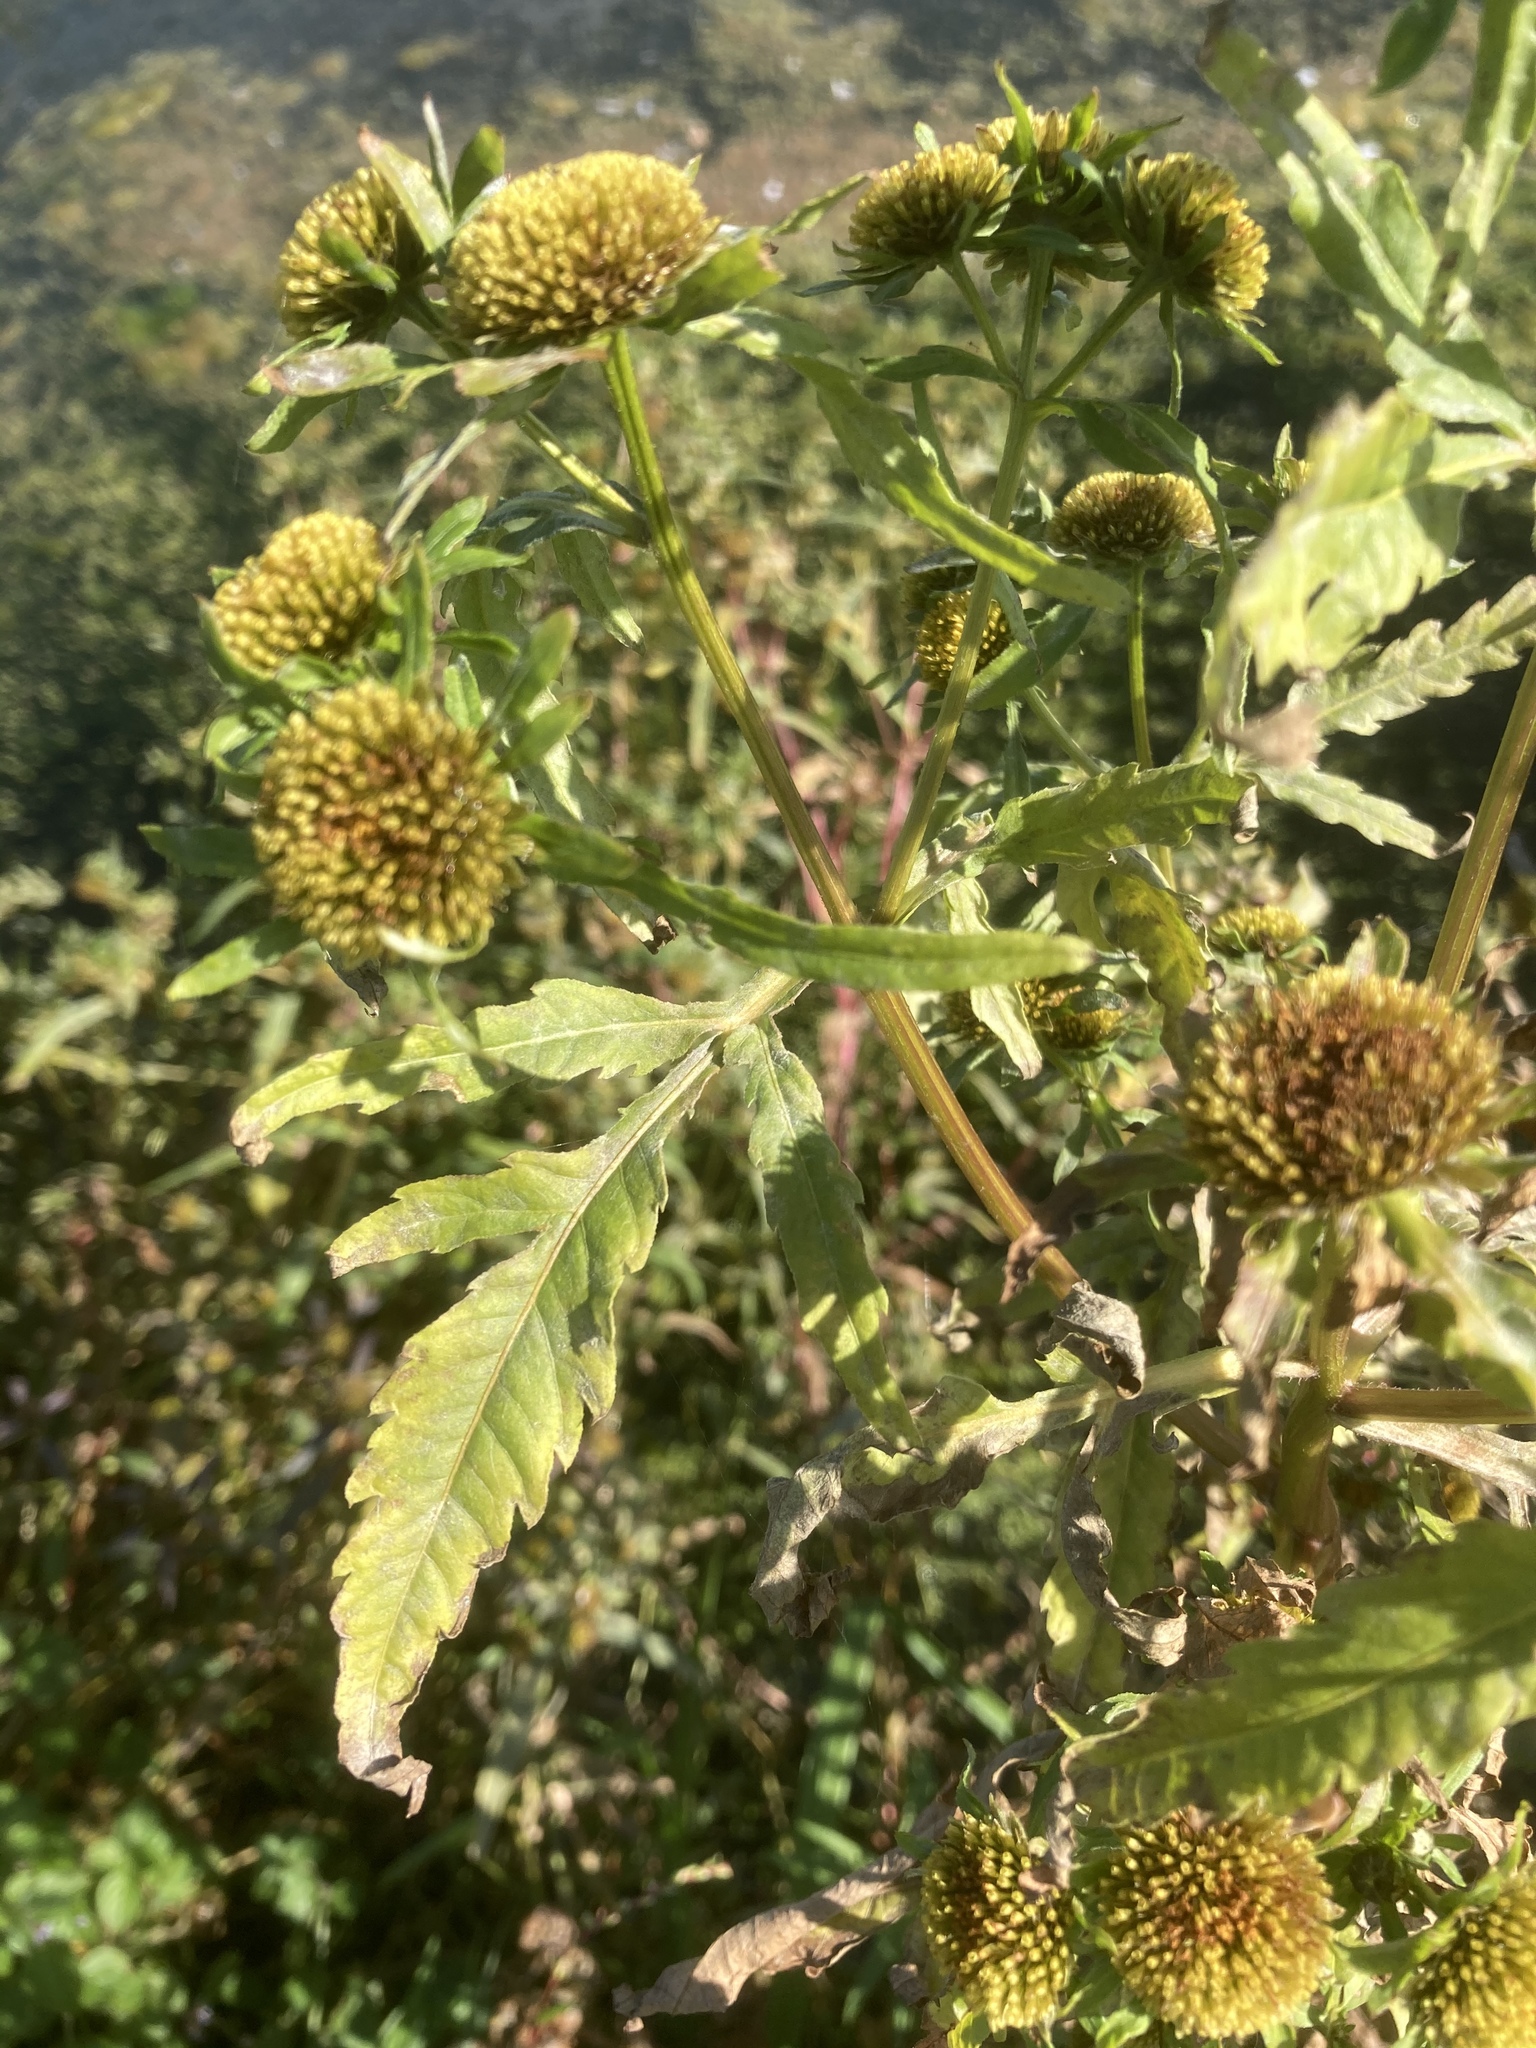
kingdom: Plantae
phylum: Tracheophyta
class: Magnoliopsida
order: Asterales
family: Asteraceae
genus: Bidens
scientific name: Bidens radiata
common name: Radiating bur-marigold
